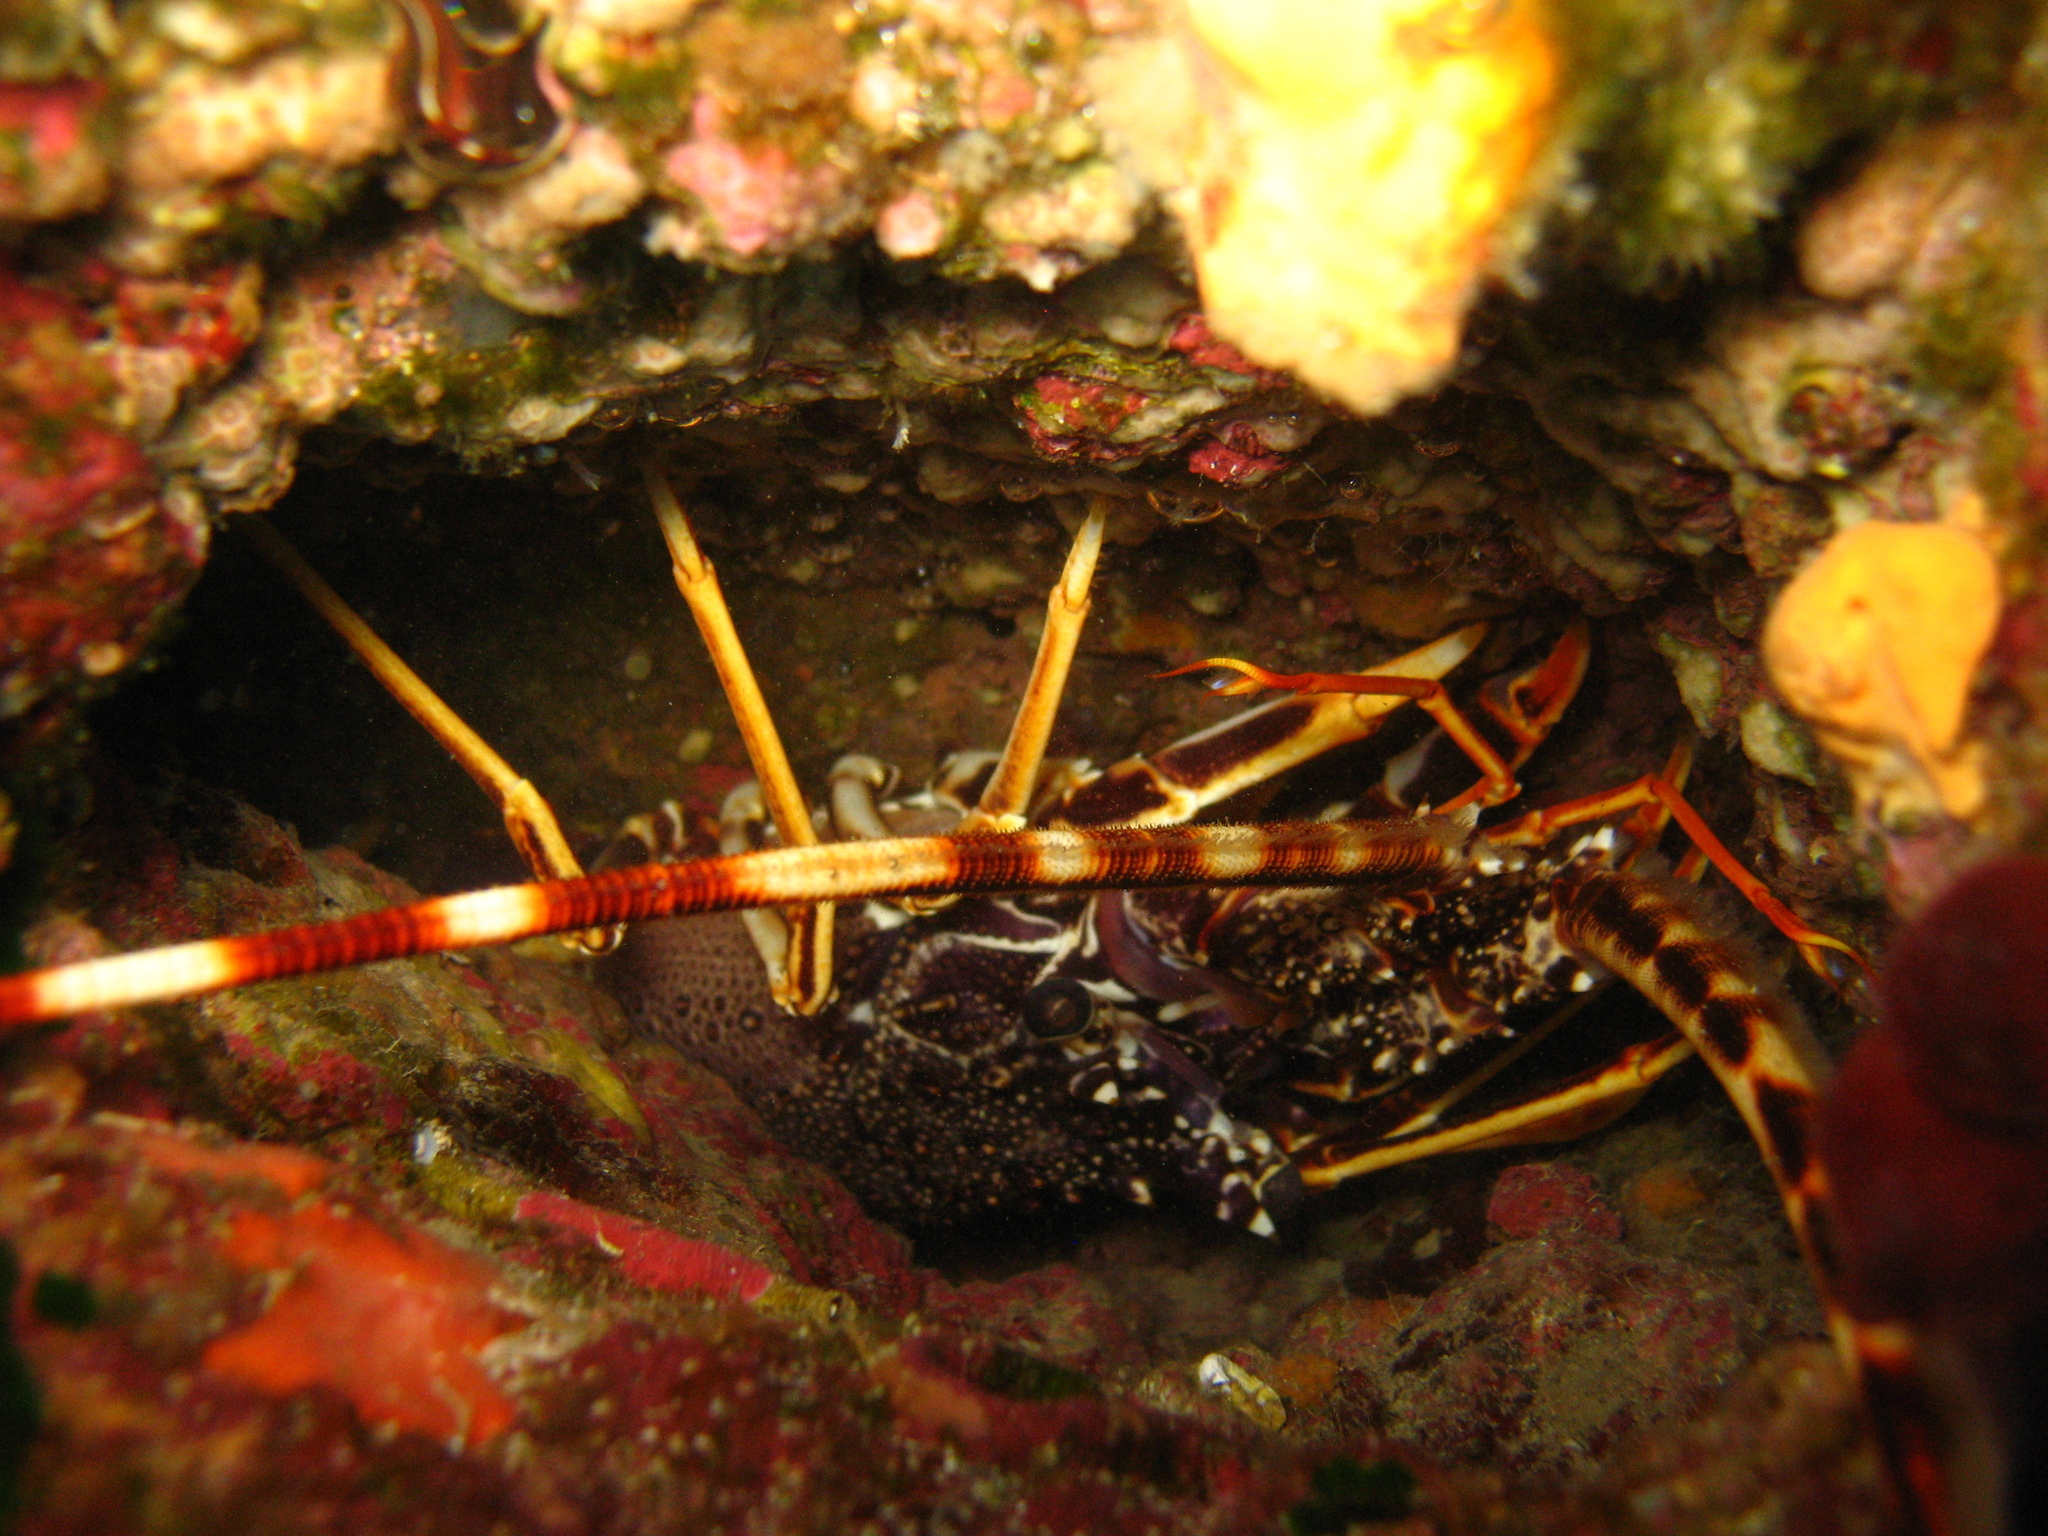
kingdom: Animalia
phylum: Arthropoda
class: Malacostraca
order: Decapoda
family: Palinuridae
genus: Palinurus
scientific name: Palinurus elephas
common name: European spiny lobster
